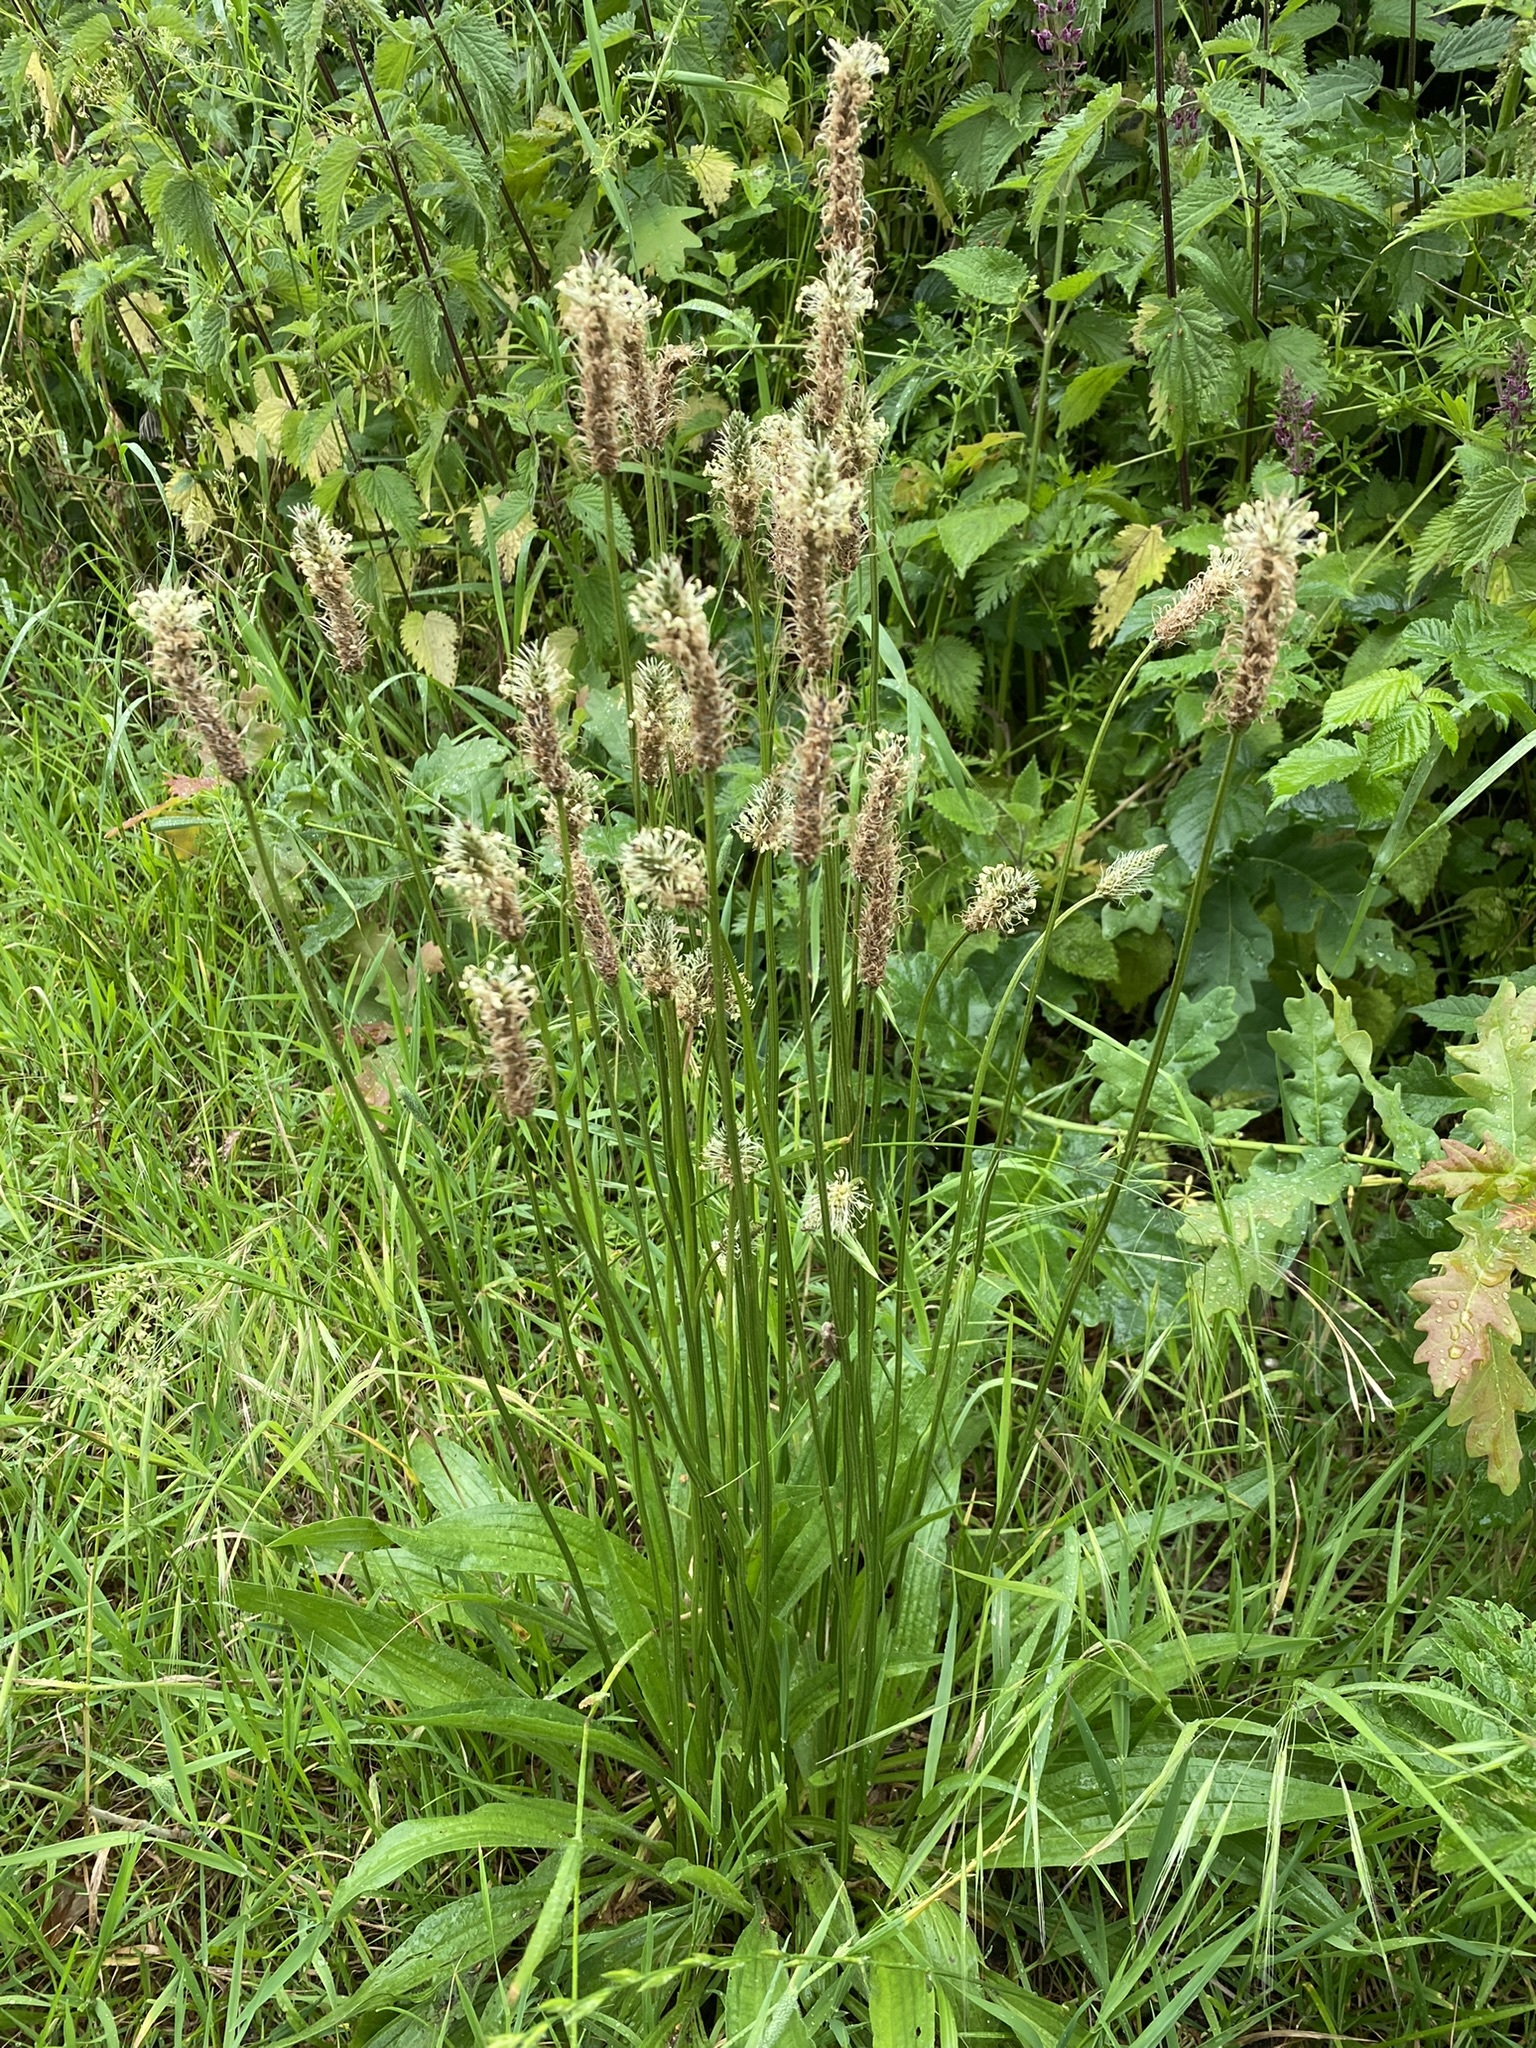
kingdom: Plantae
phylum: Tracheophyta
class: Magnoliopsida
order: Lamiales
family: Plantaginaceae
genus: Plantago
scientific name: Plantago lanceolata
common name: Ribwort plantain
